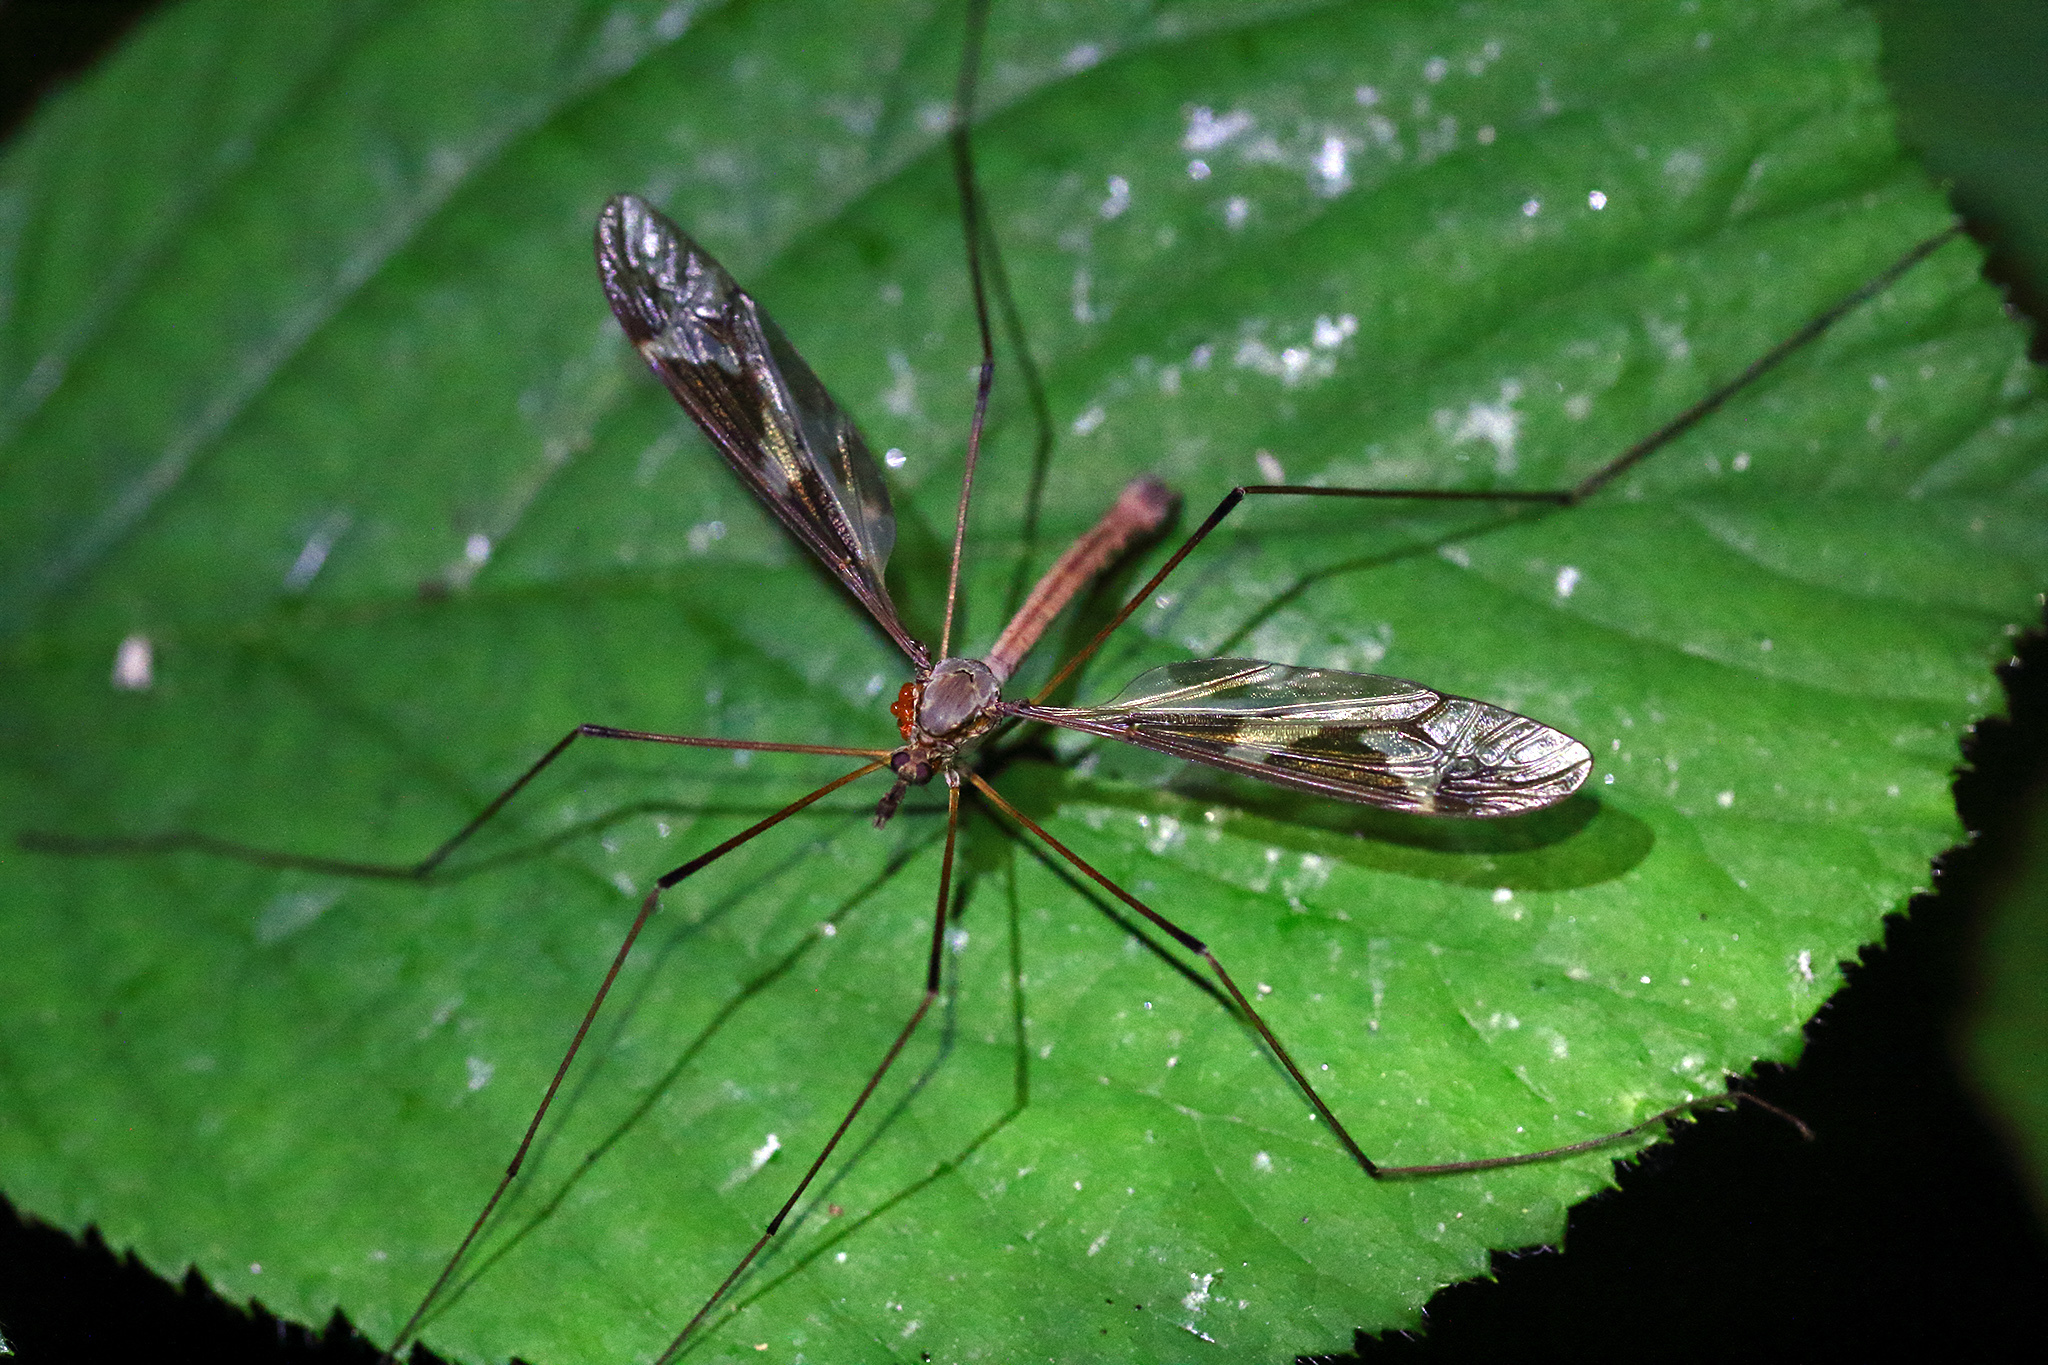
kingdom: Animalia
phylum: Arthropoda
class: Insecta
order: Diptera
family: Tipulidae
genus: Tipula
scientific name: Tipula maxima
